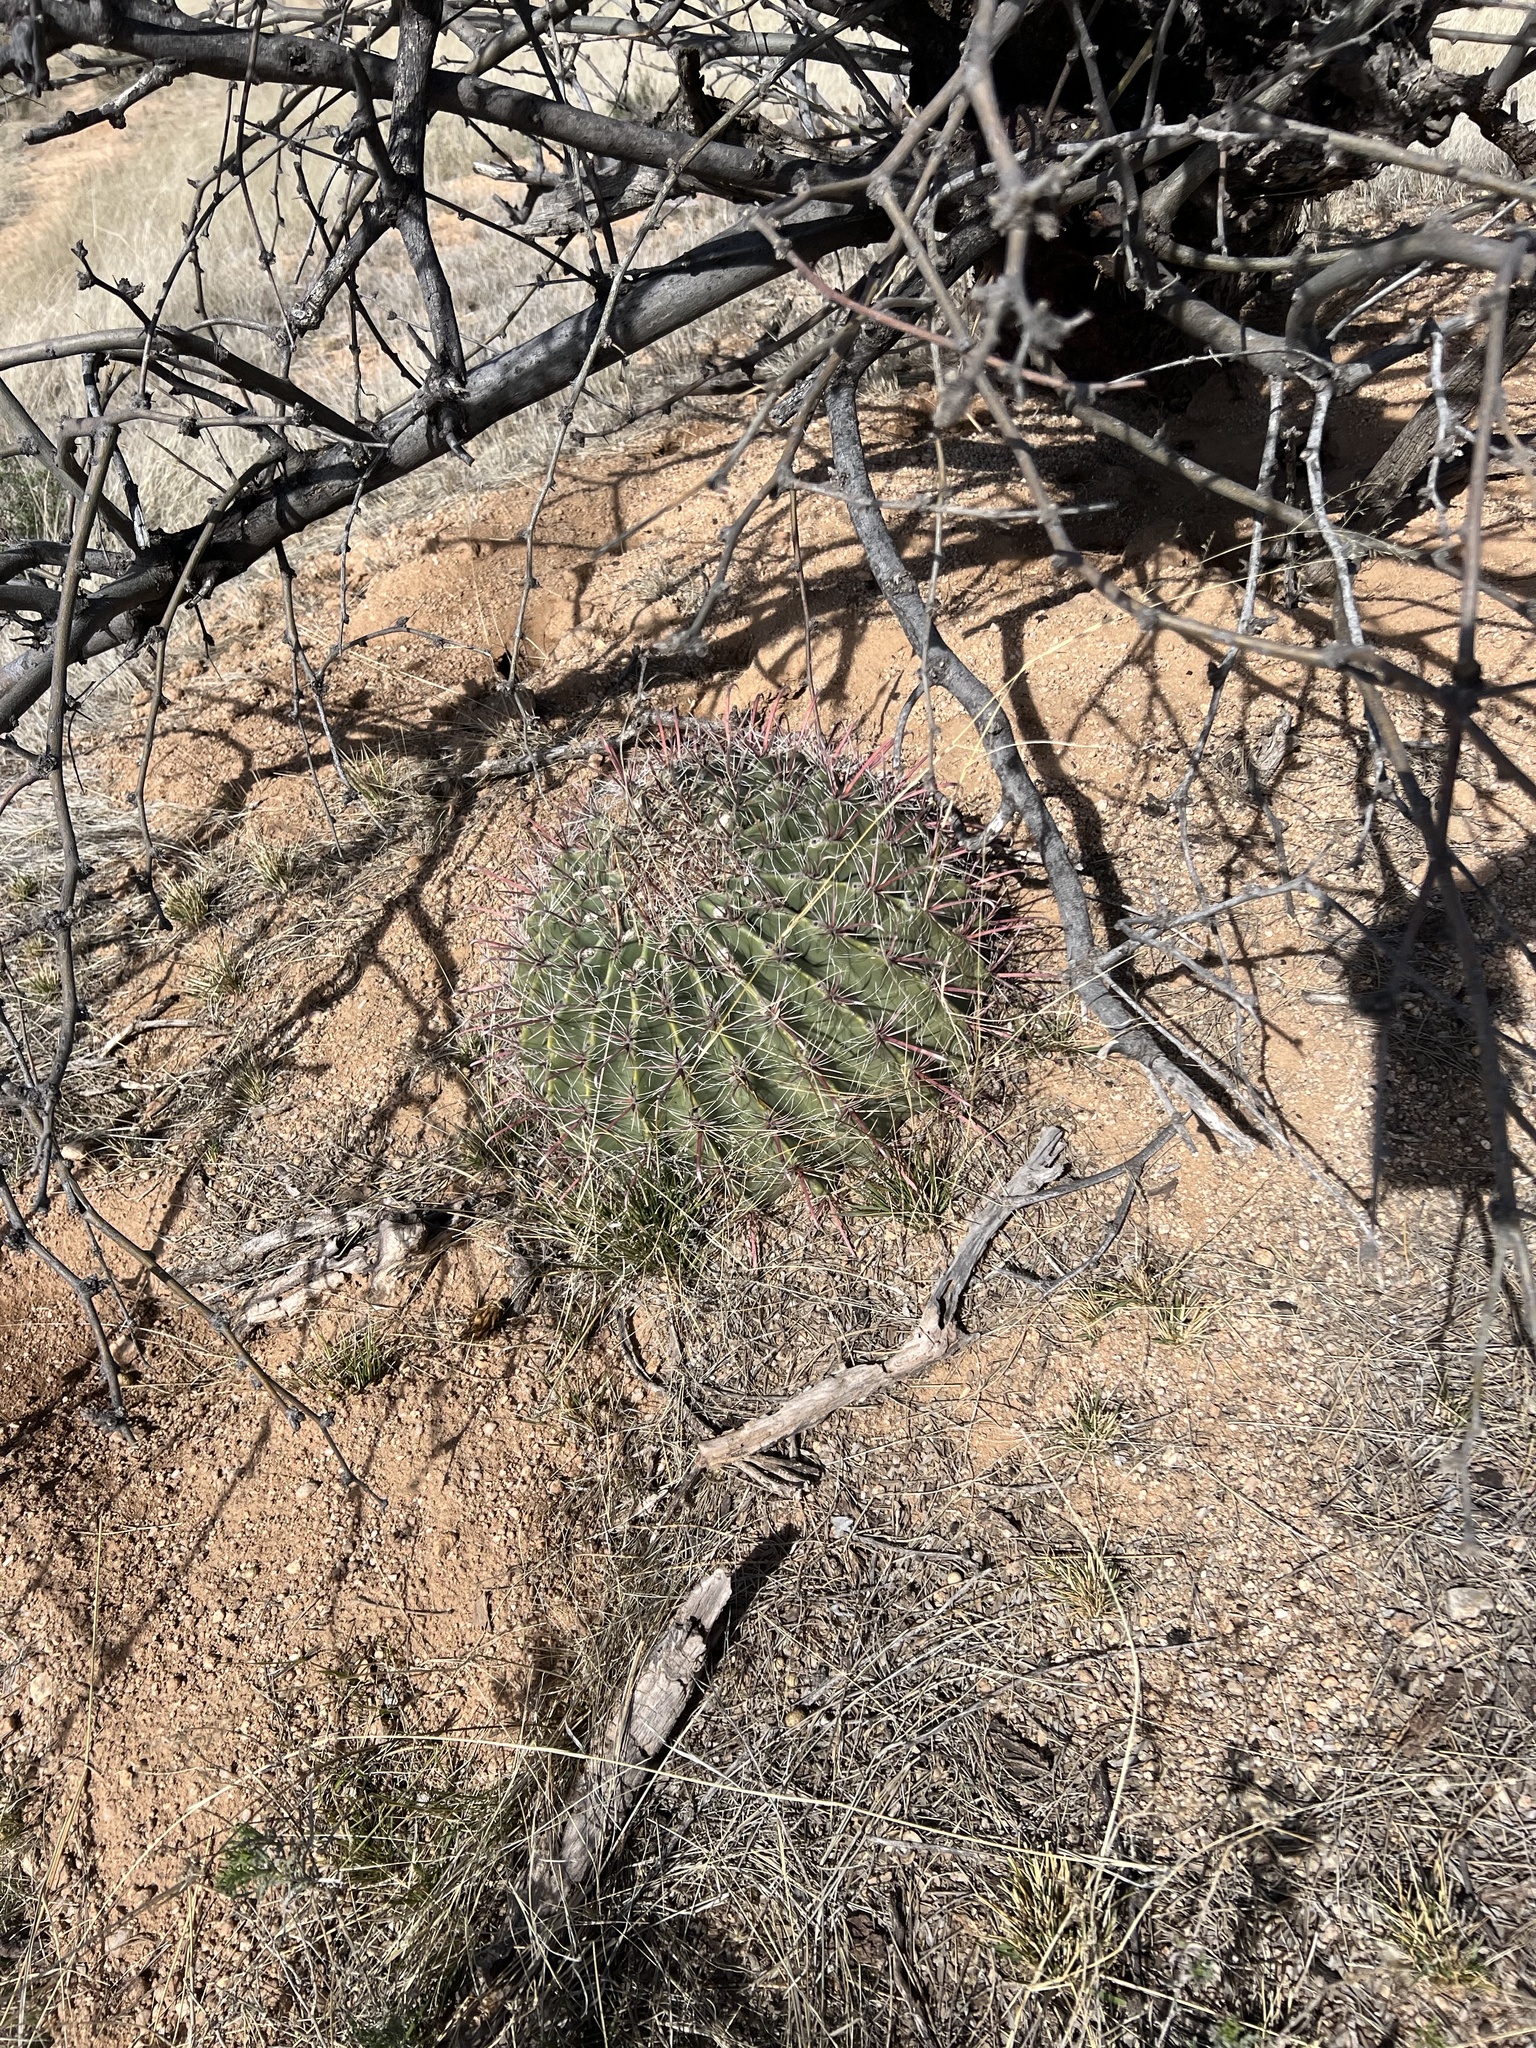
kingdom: Plantae
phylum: Tracheophyta
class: Magnoliopsida
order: Caryophyllales
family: Cactaceae
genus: Ferocactus
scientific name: Ferocactus wislizeni
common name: Candy barrel cactus
